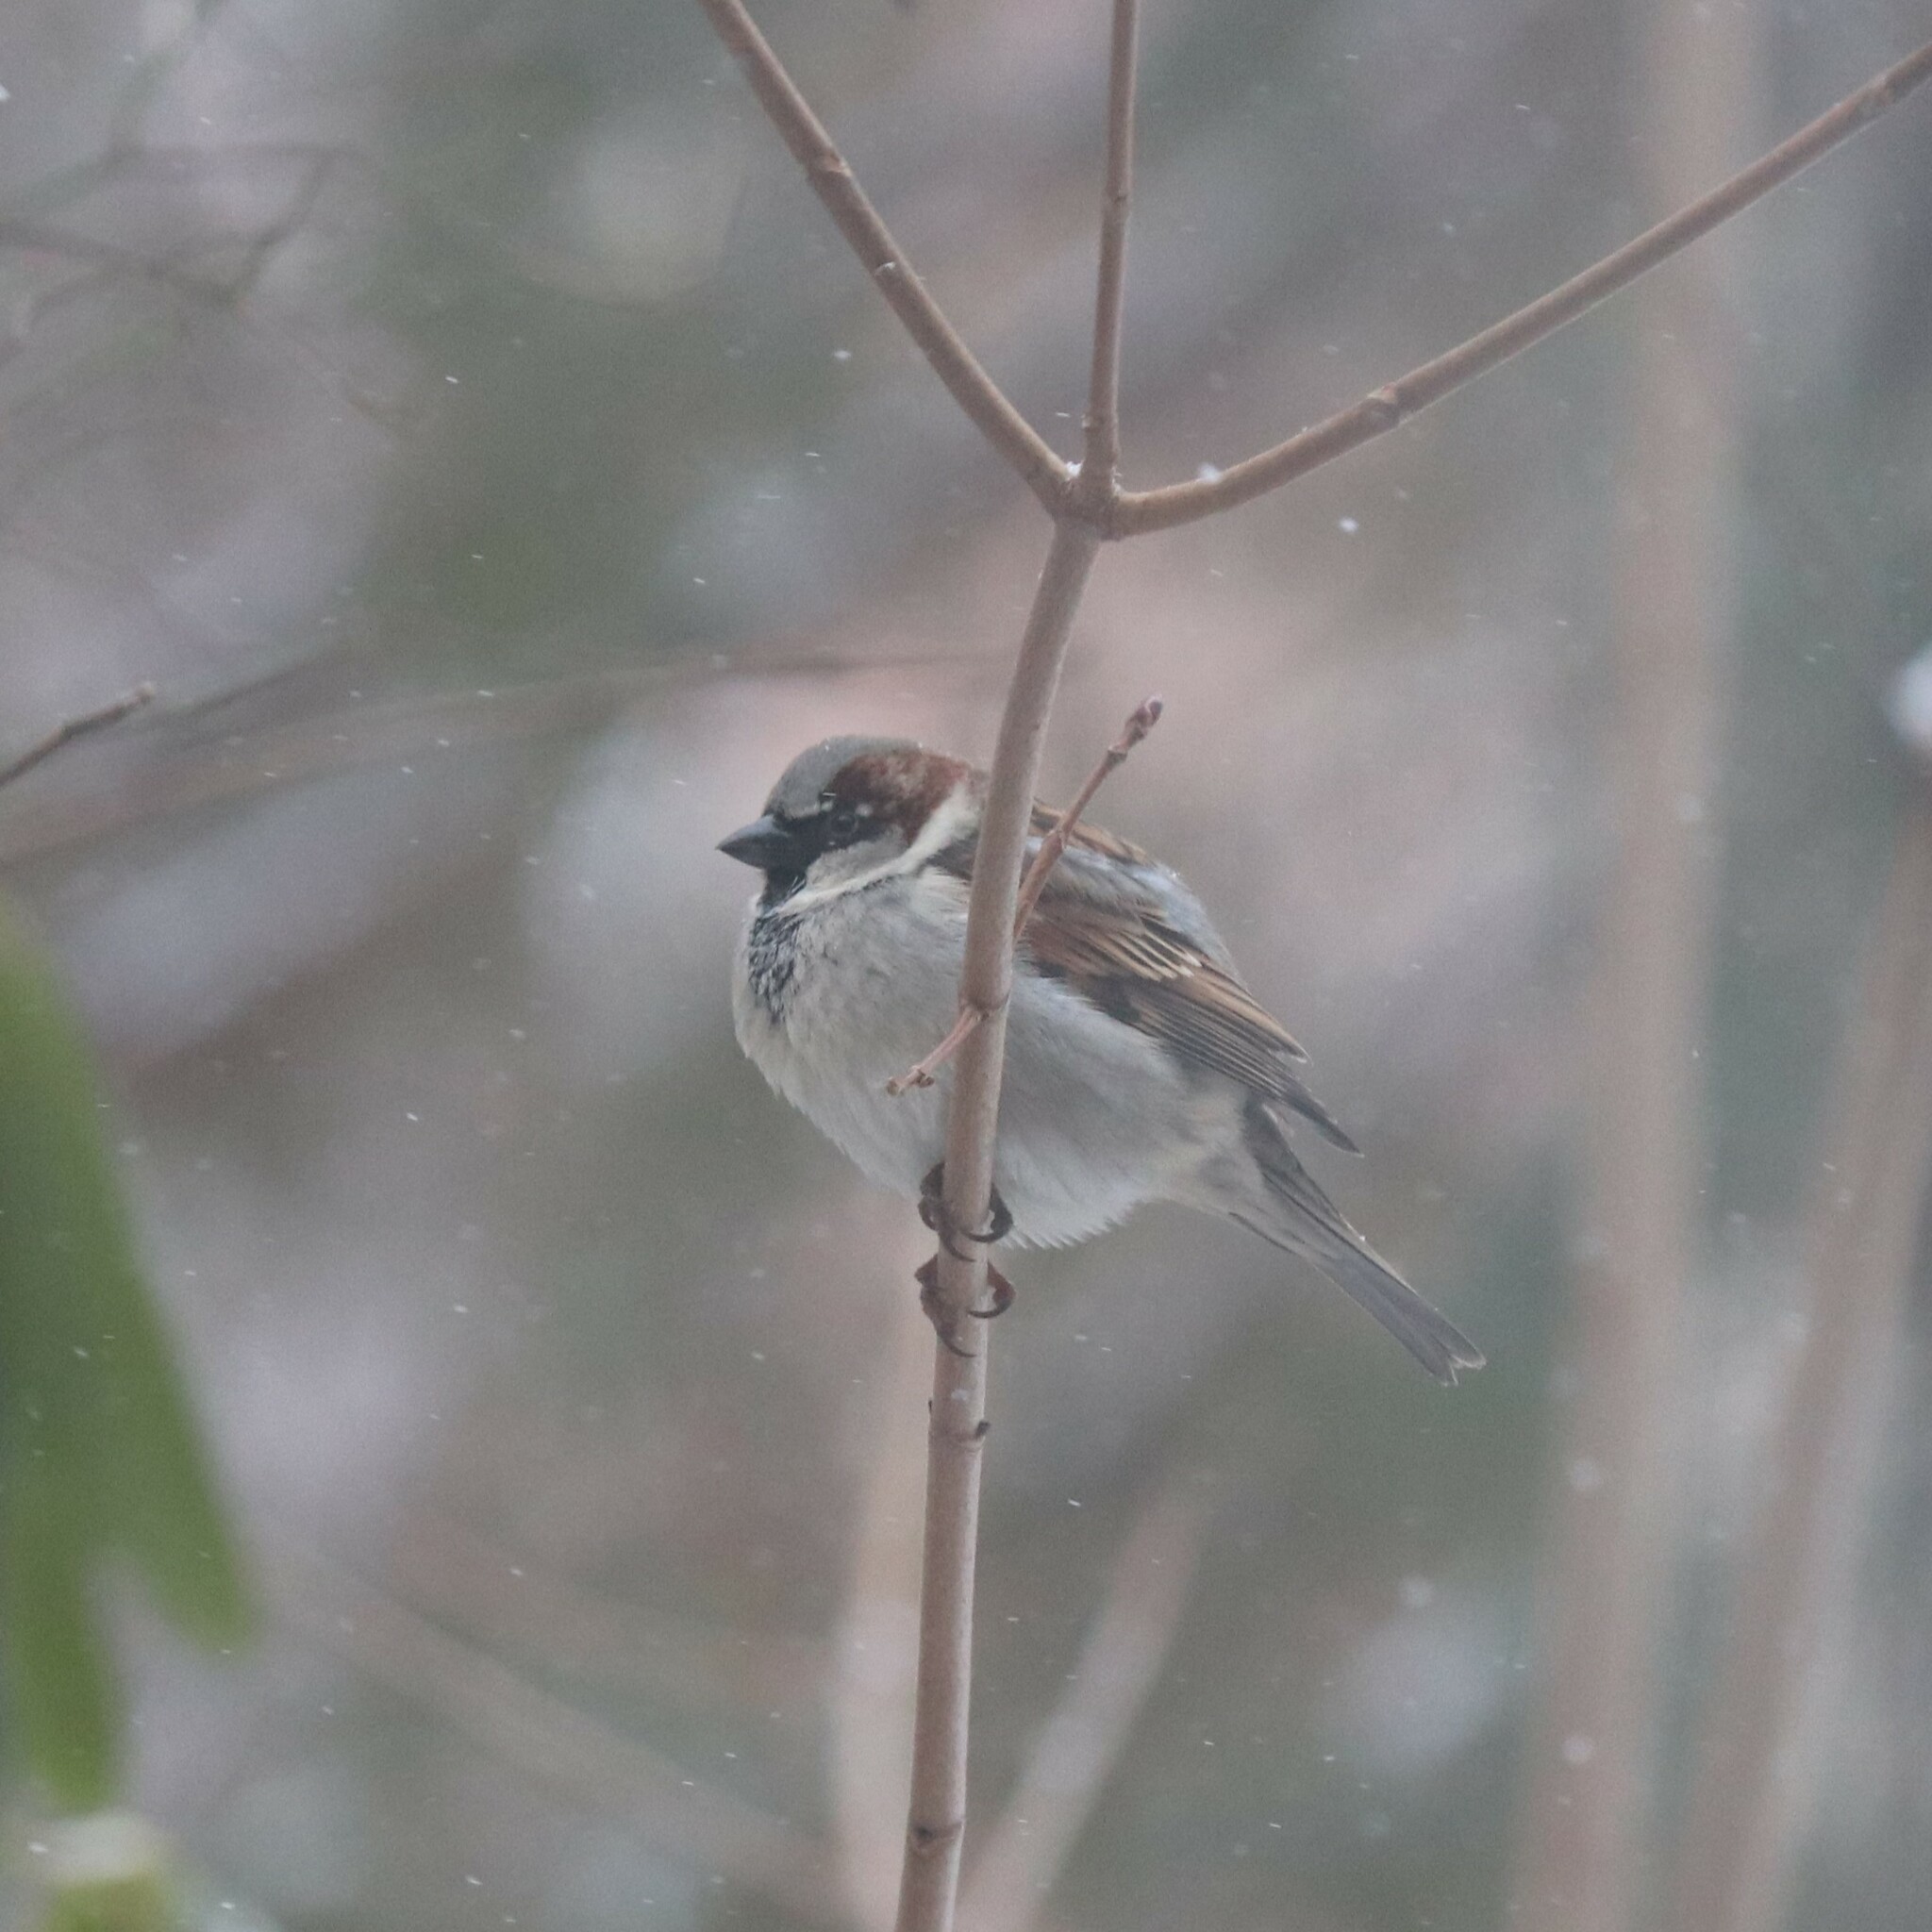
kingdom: Animalia
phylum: Chordata
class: Aves
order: Passeriformes
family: Passeridae
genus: Passer
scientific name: Passer domesticus
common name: House sparrow
